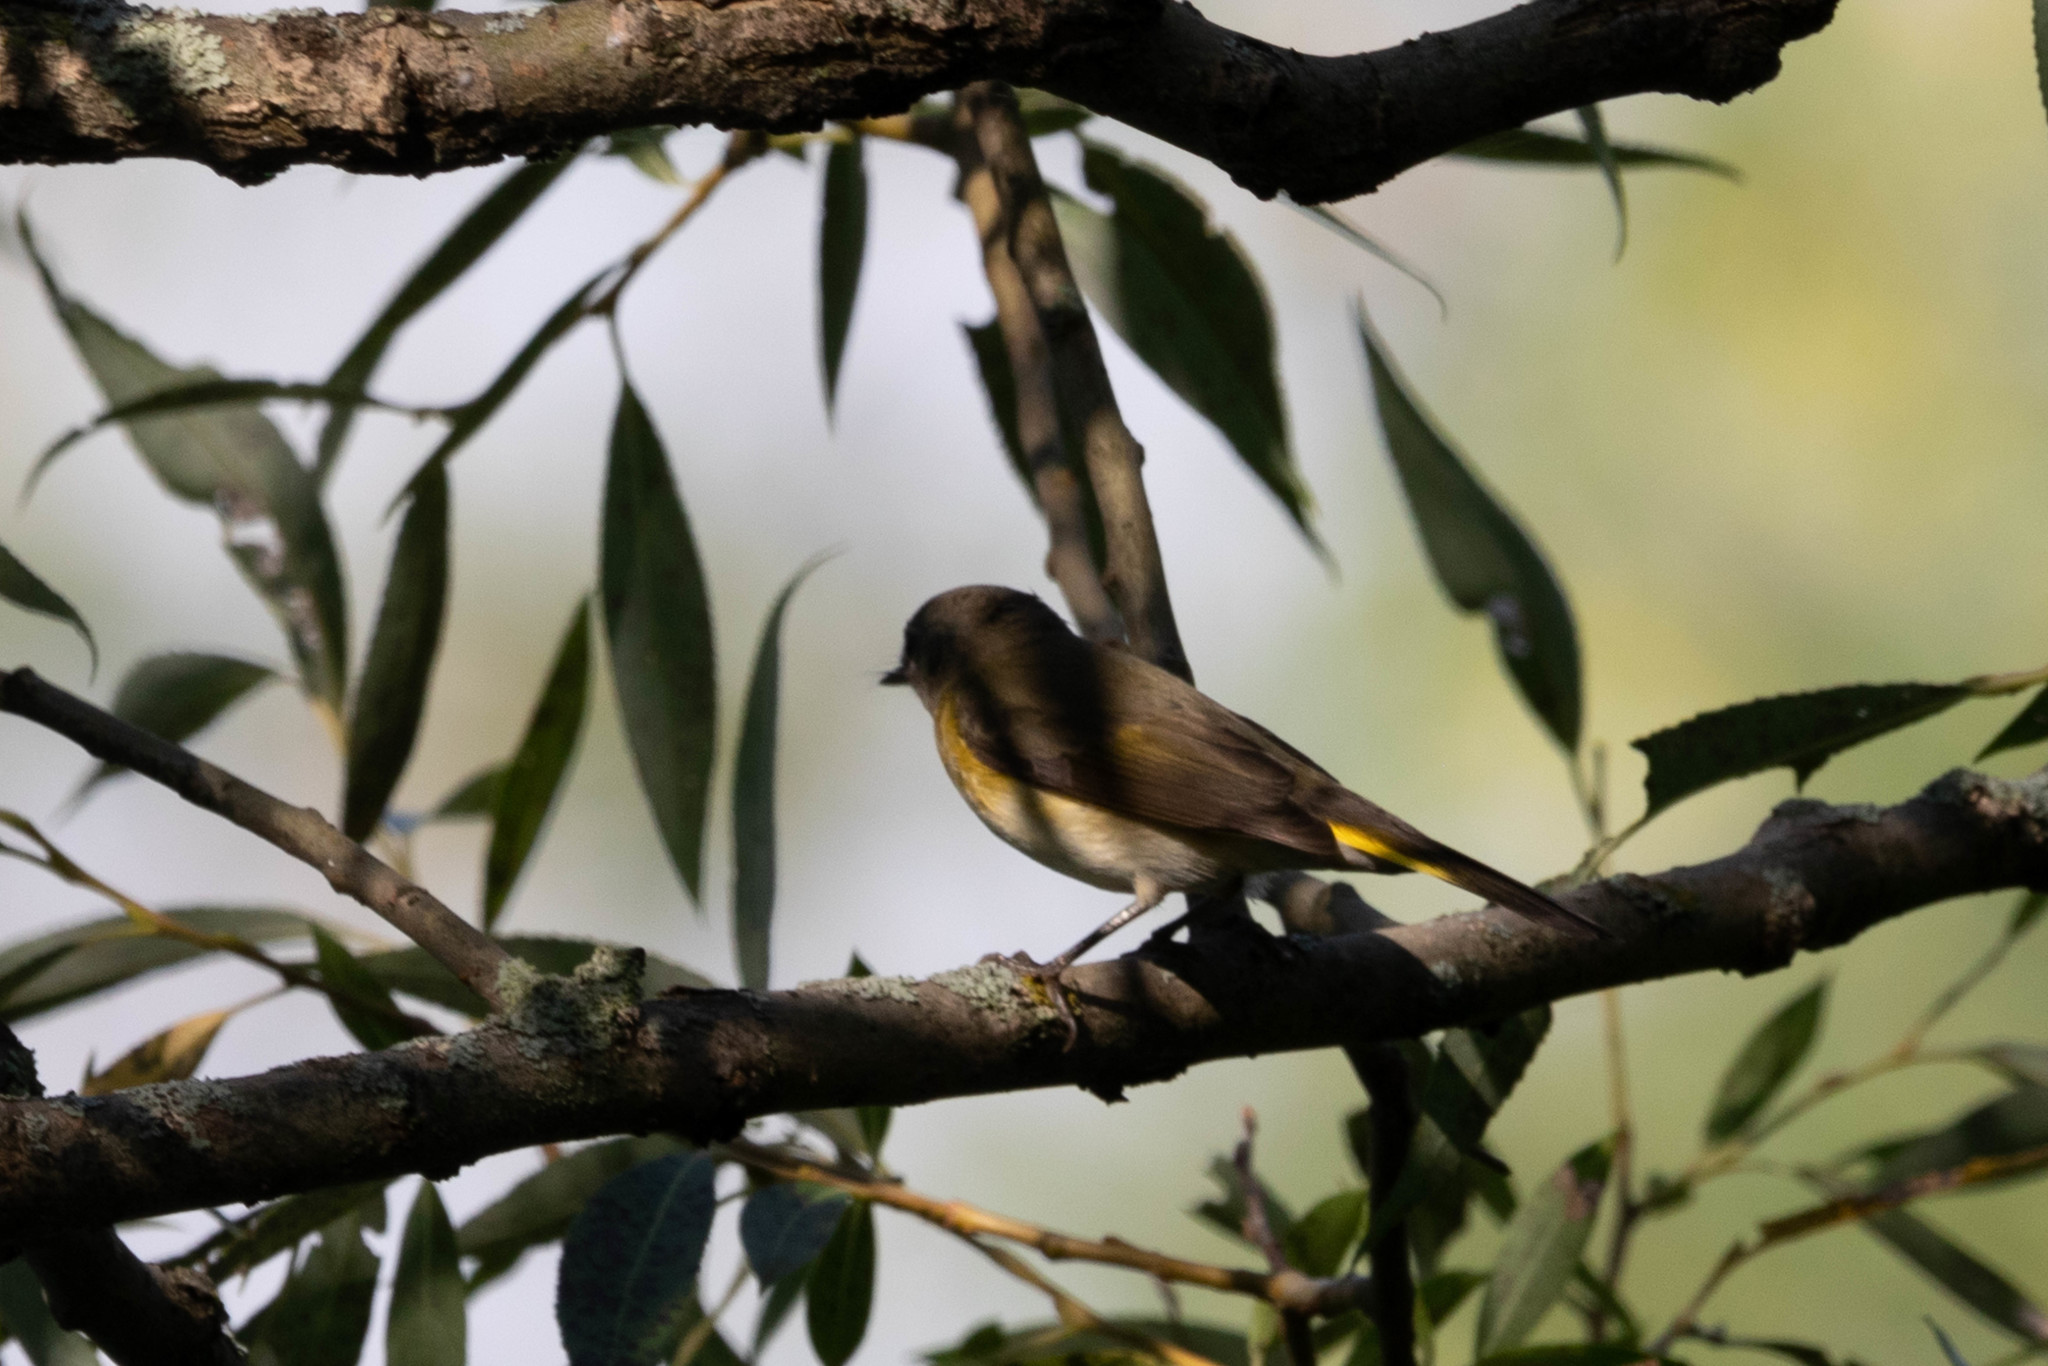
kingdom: Animalia
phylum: Chordata
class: Aves
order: Passeriformes
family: Parulidae
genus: Setophaga
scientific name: Setophaga ruticilla
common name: American redstart
